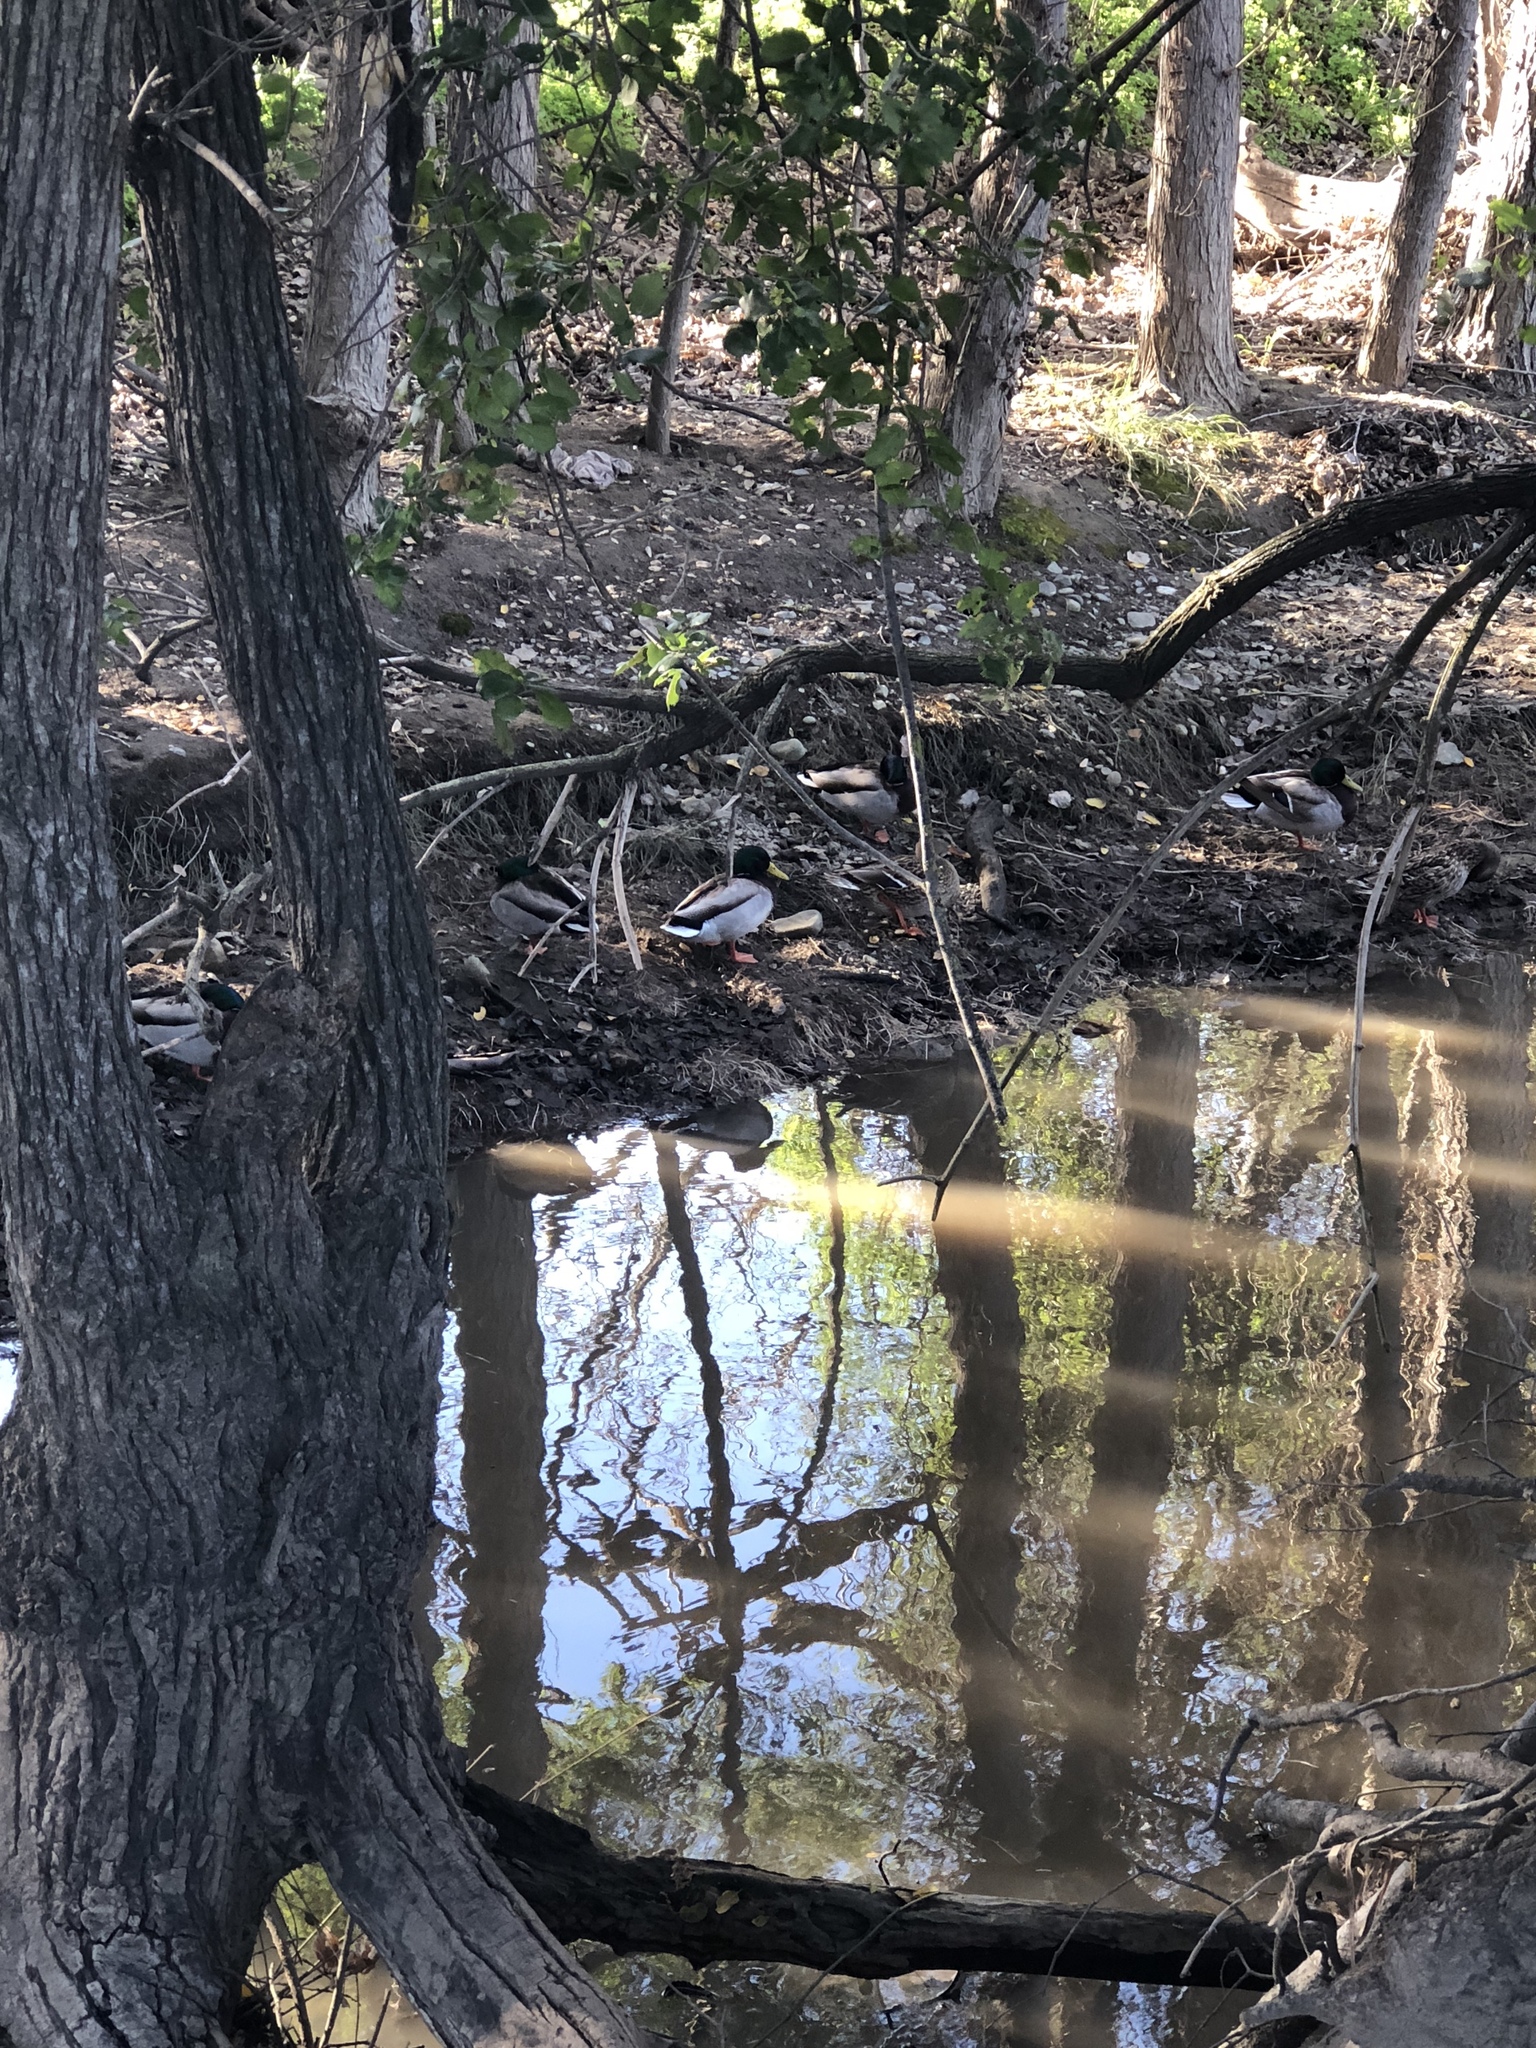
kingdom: Animalia
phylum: Chordata
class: Aves
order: Anseriformes
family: Anatidae
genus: Anas
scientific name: Anas platyrhynchos
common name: Mallard
